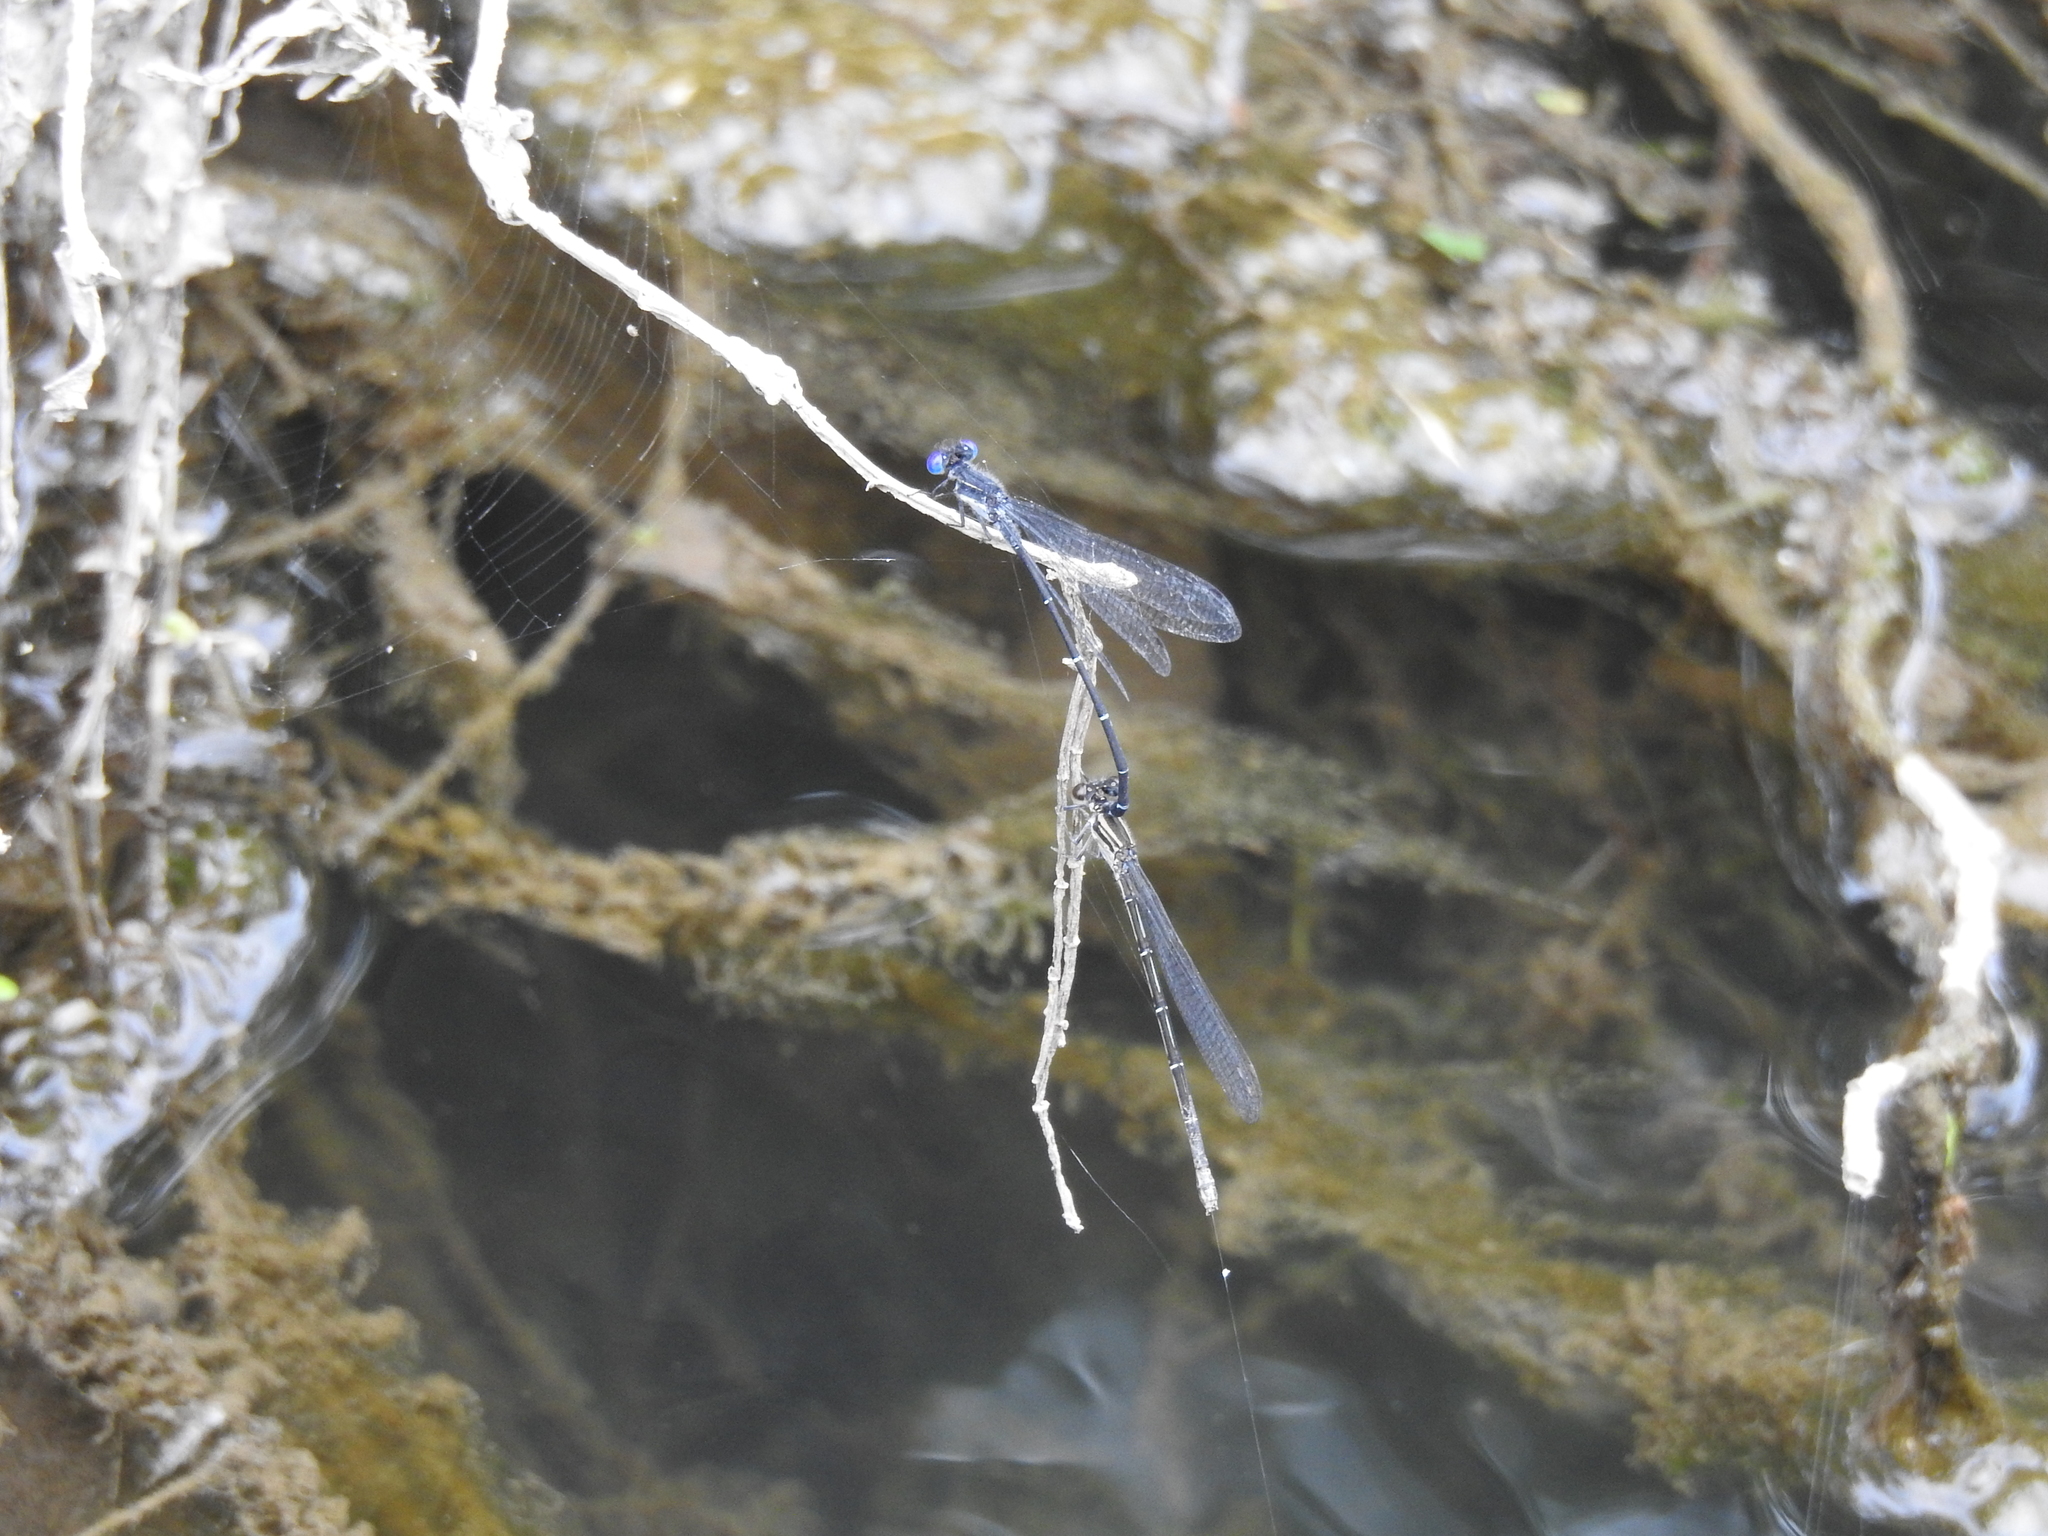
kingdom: Animalia
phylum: Arthropoda
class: Insecta
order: Odonata
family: Coenagrionidae
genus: Argia
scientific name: Argia translata
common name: Dusky dancer
